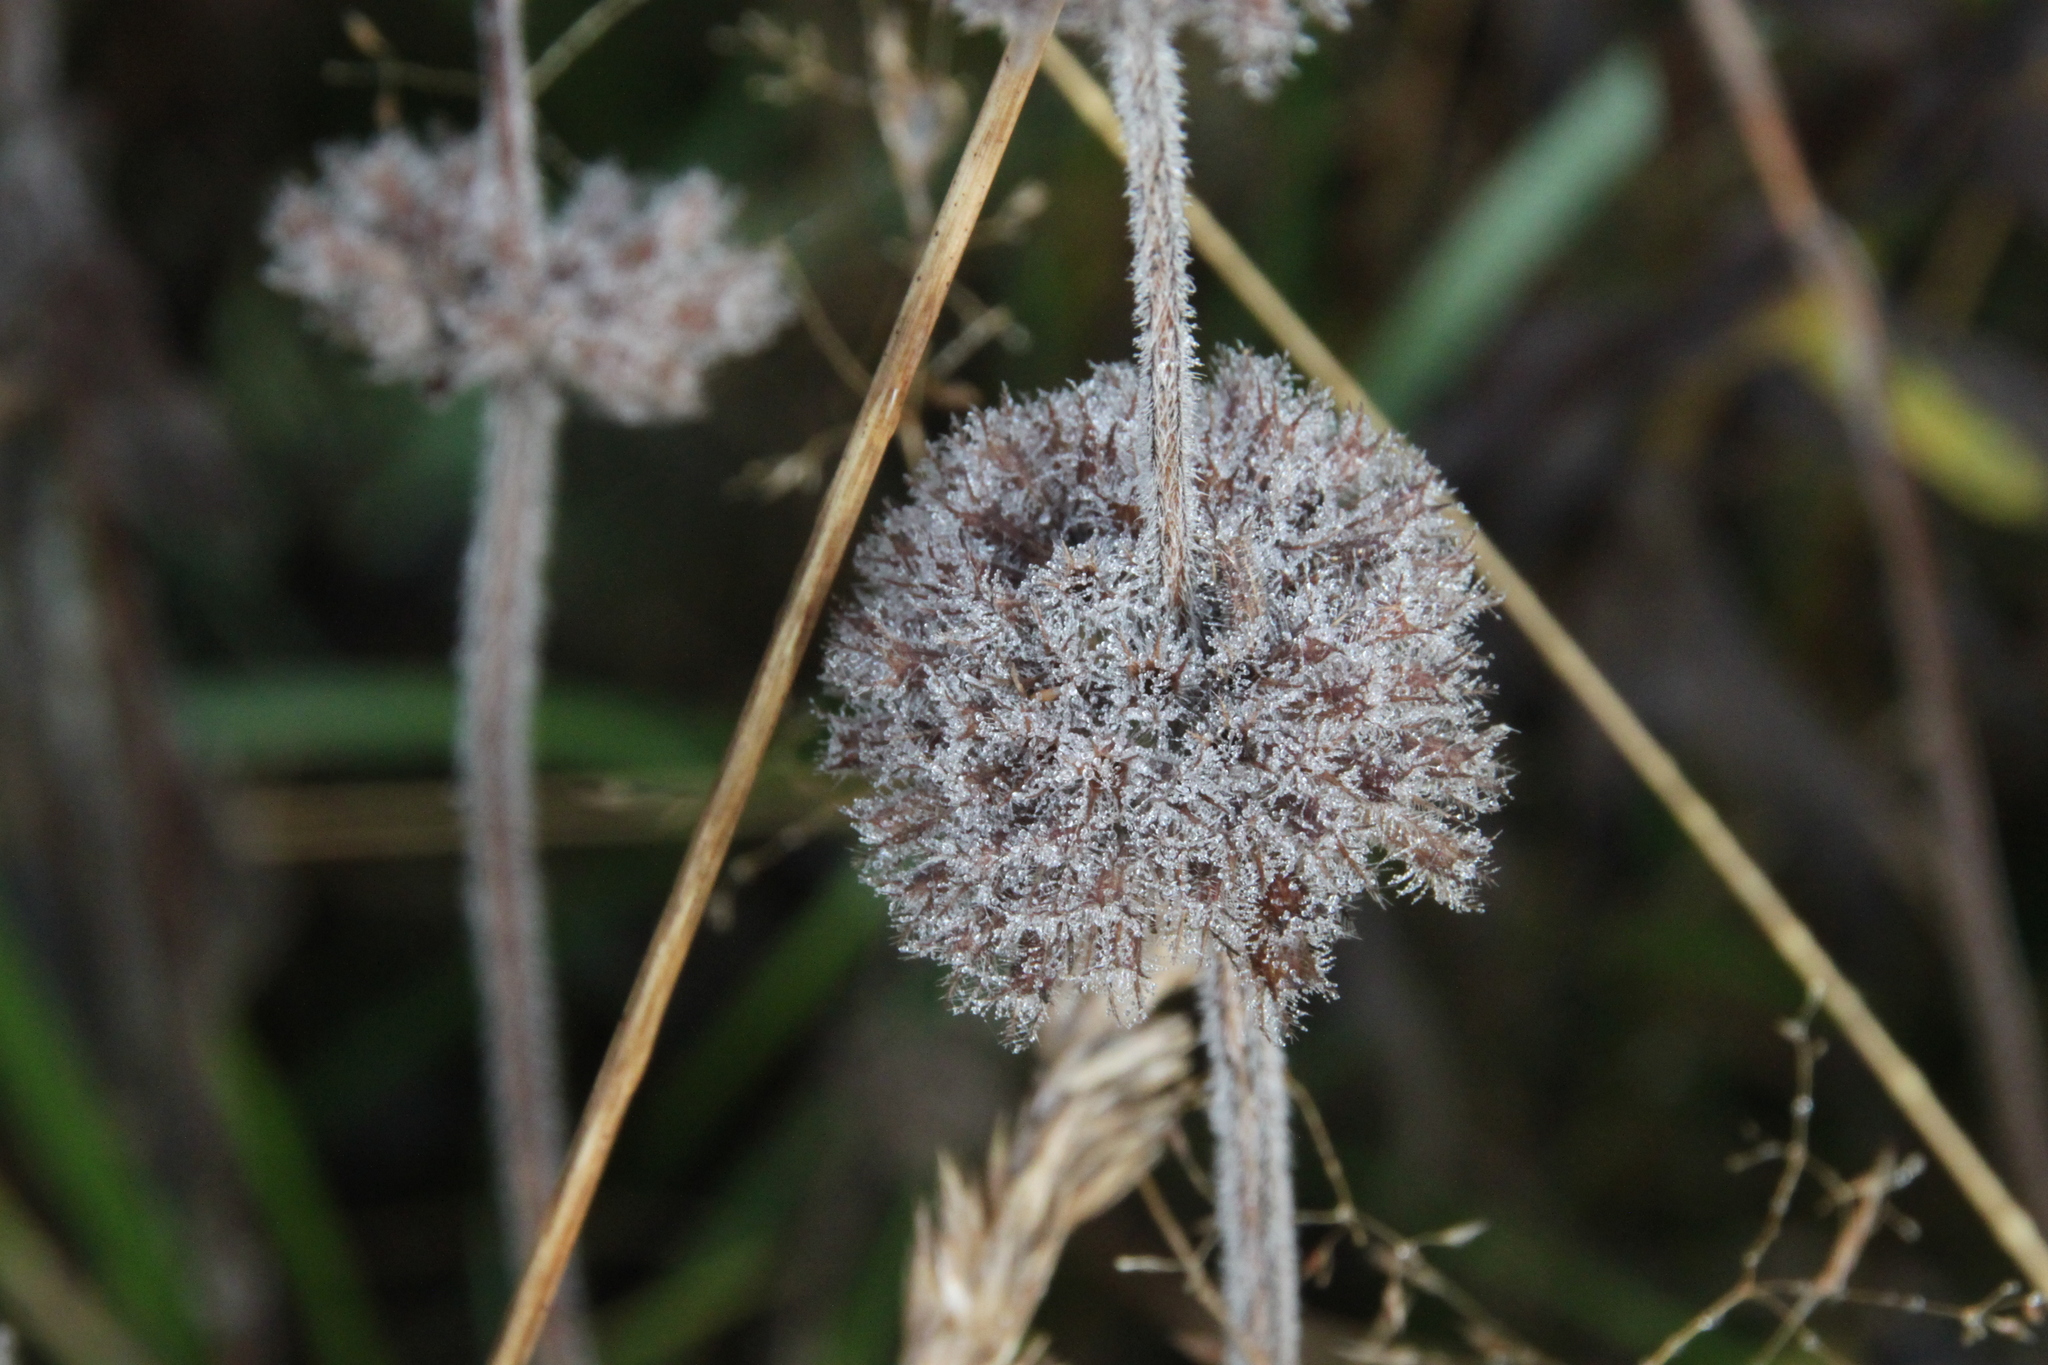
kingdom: Plantae
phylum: Tracheophyta
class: Magnoliopsida
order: Lamiales
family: Lamiaceae
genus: Clinopodium
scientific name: Clinopodium vulgare
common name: Wild basil
